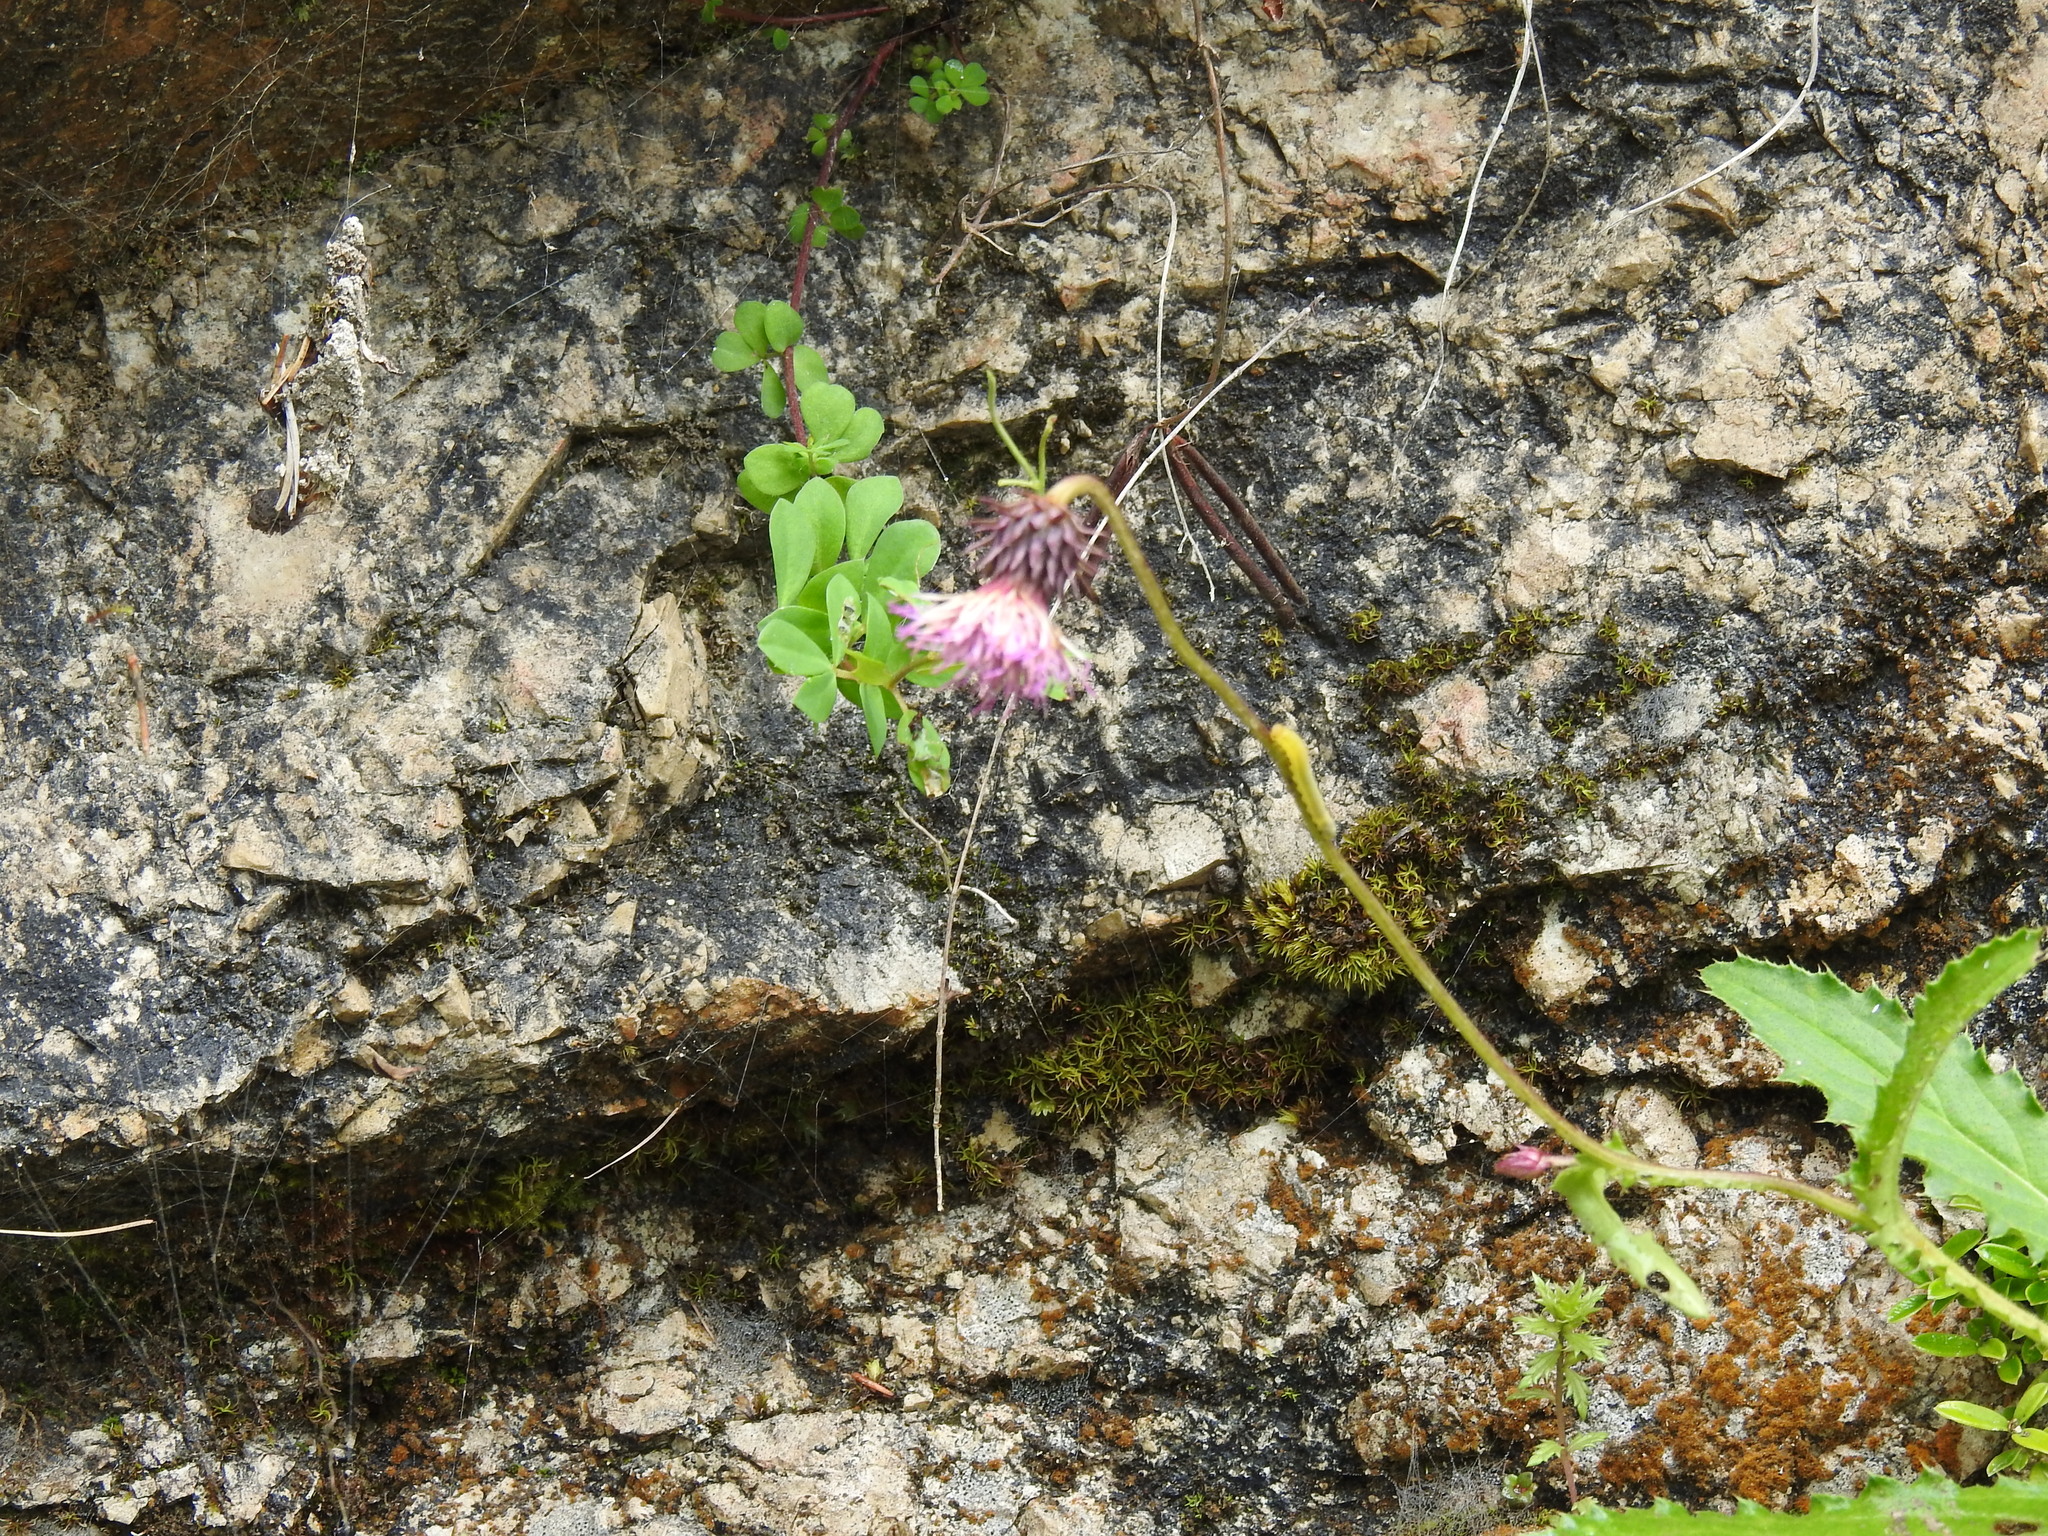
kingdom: Plantae
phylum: Tracheophyta
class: Magnoliopsida
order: Asterales
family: Asteraceae
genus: Carduus
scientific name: Carduus defloratus
